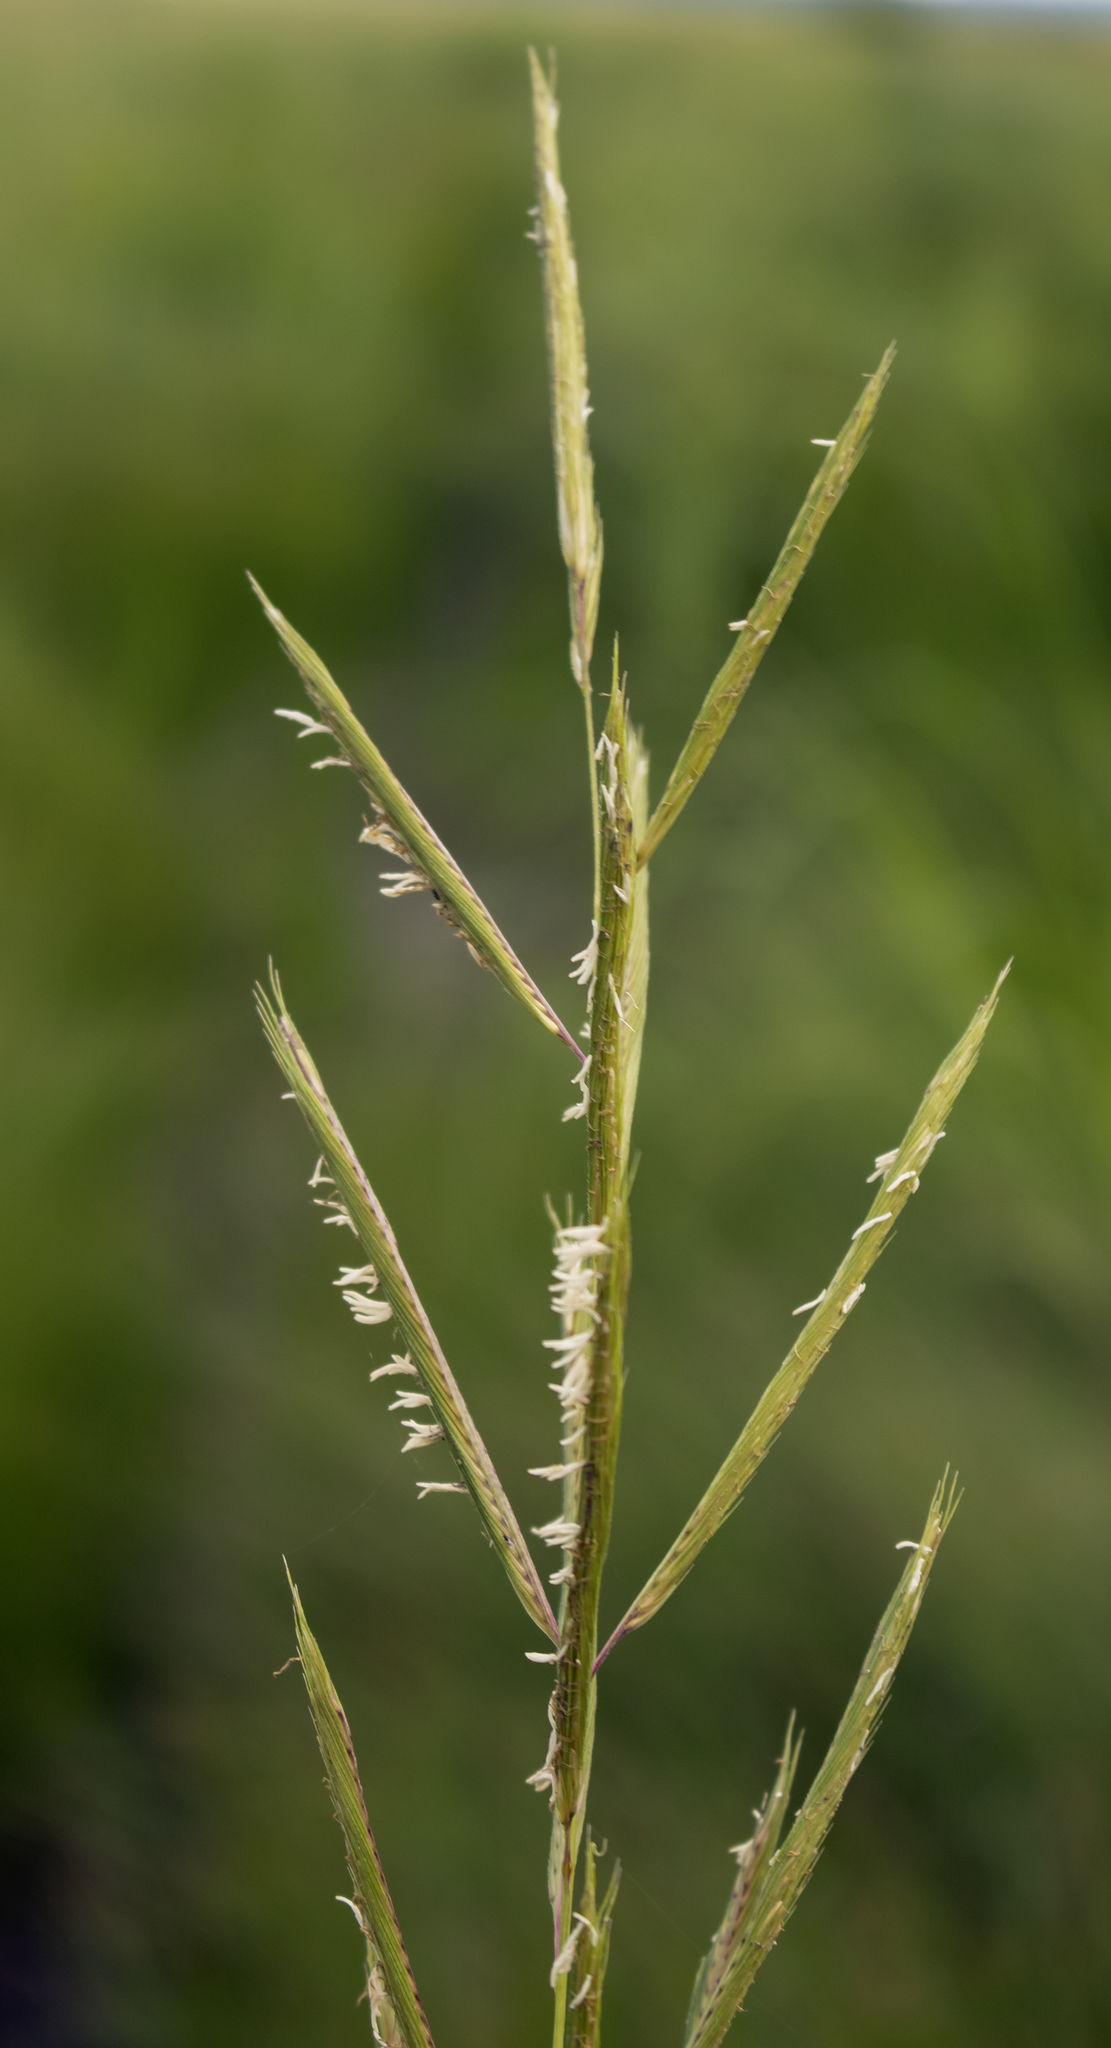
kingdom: Plantae
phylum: Tracheophyta
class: Liliopsida
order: Poales
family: Poaceae
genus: Sporobolus
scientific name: Sporobolus michauxianus
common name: Freshwater cordgrass
